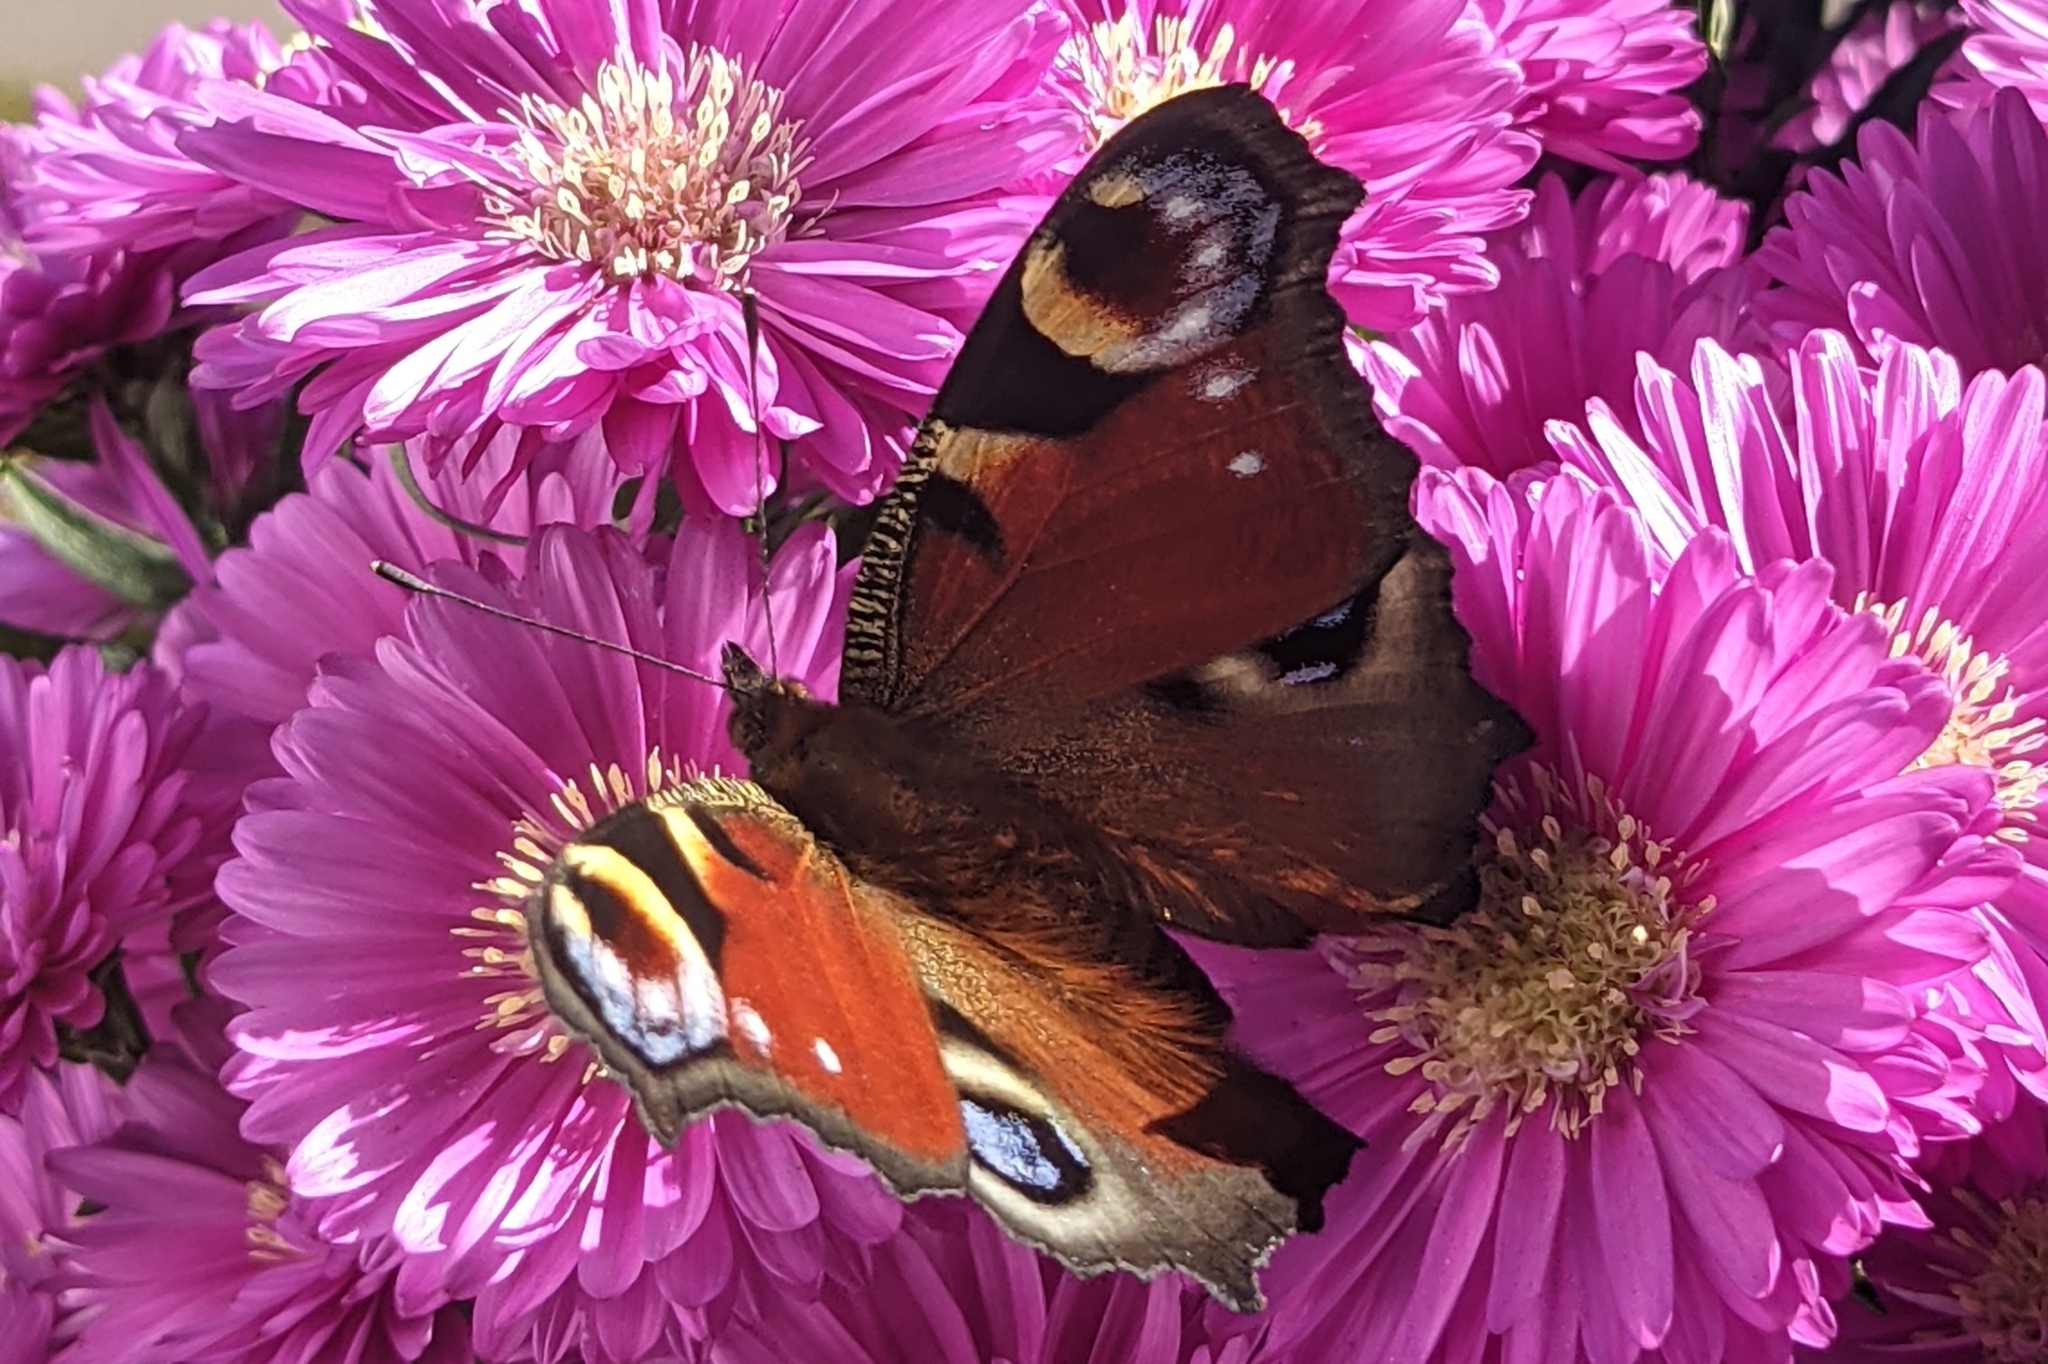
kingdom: Animalia
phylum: Arthropoda
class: Insecta
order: Lepidoptera
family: Nymphalidae
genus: Aglais
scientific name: Aglais io
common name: Peacock
